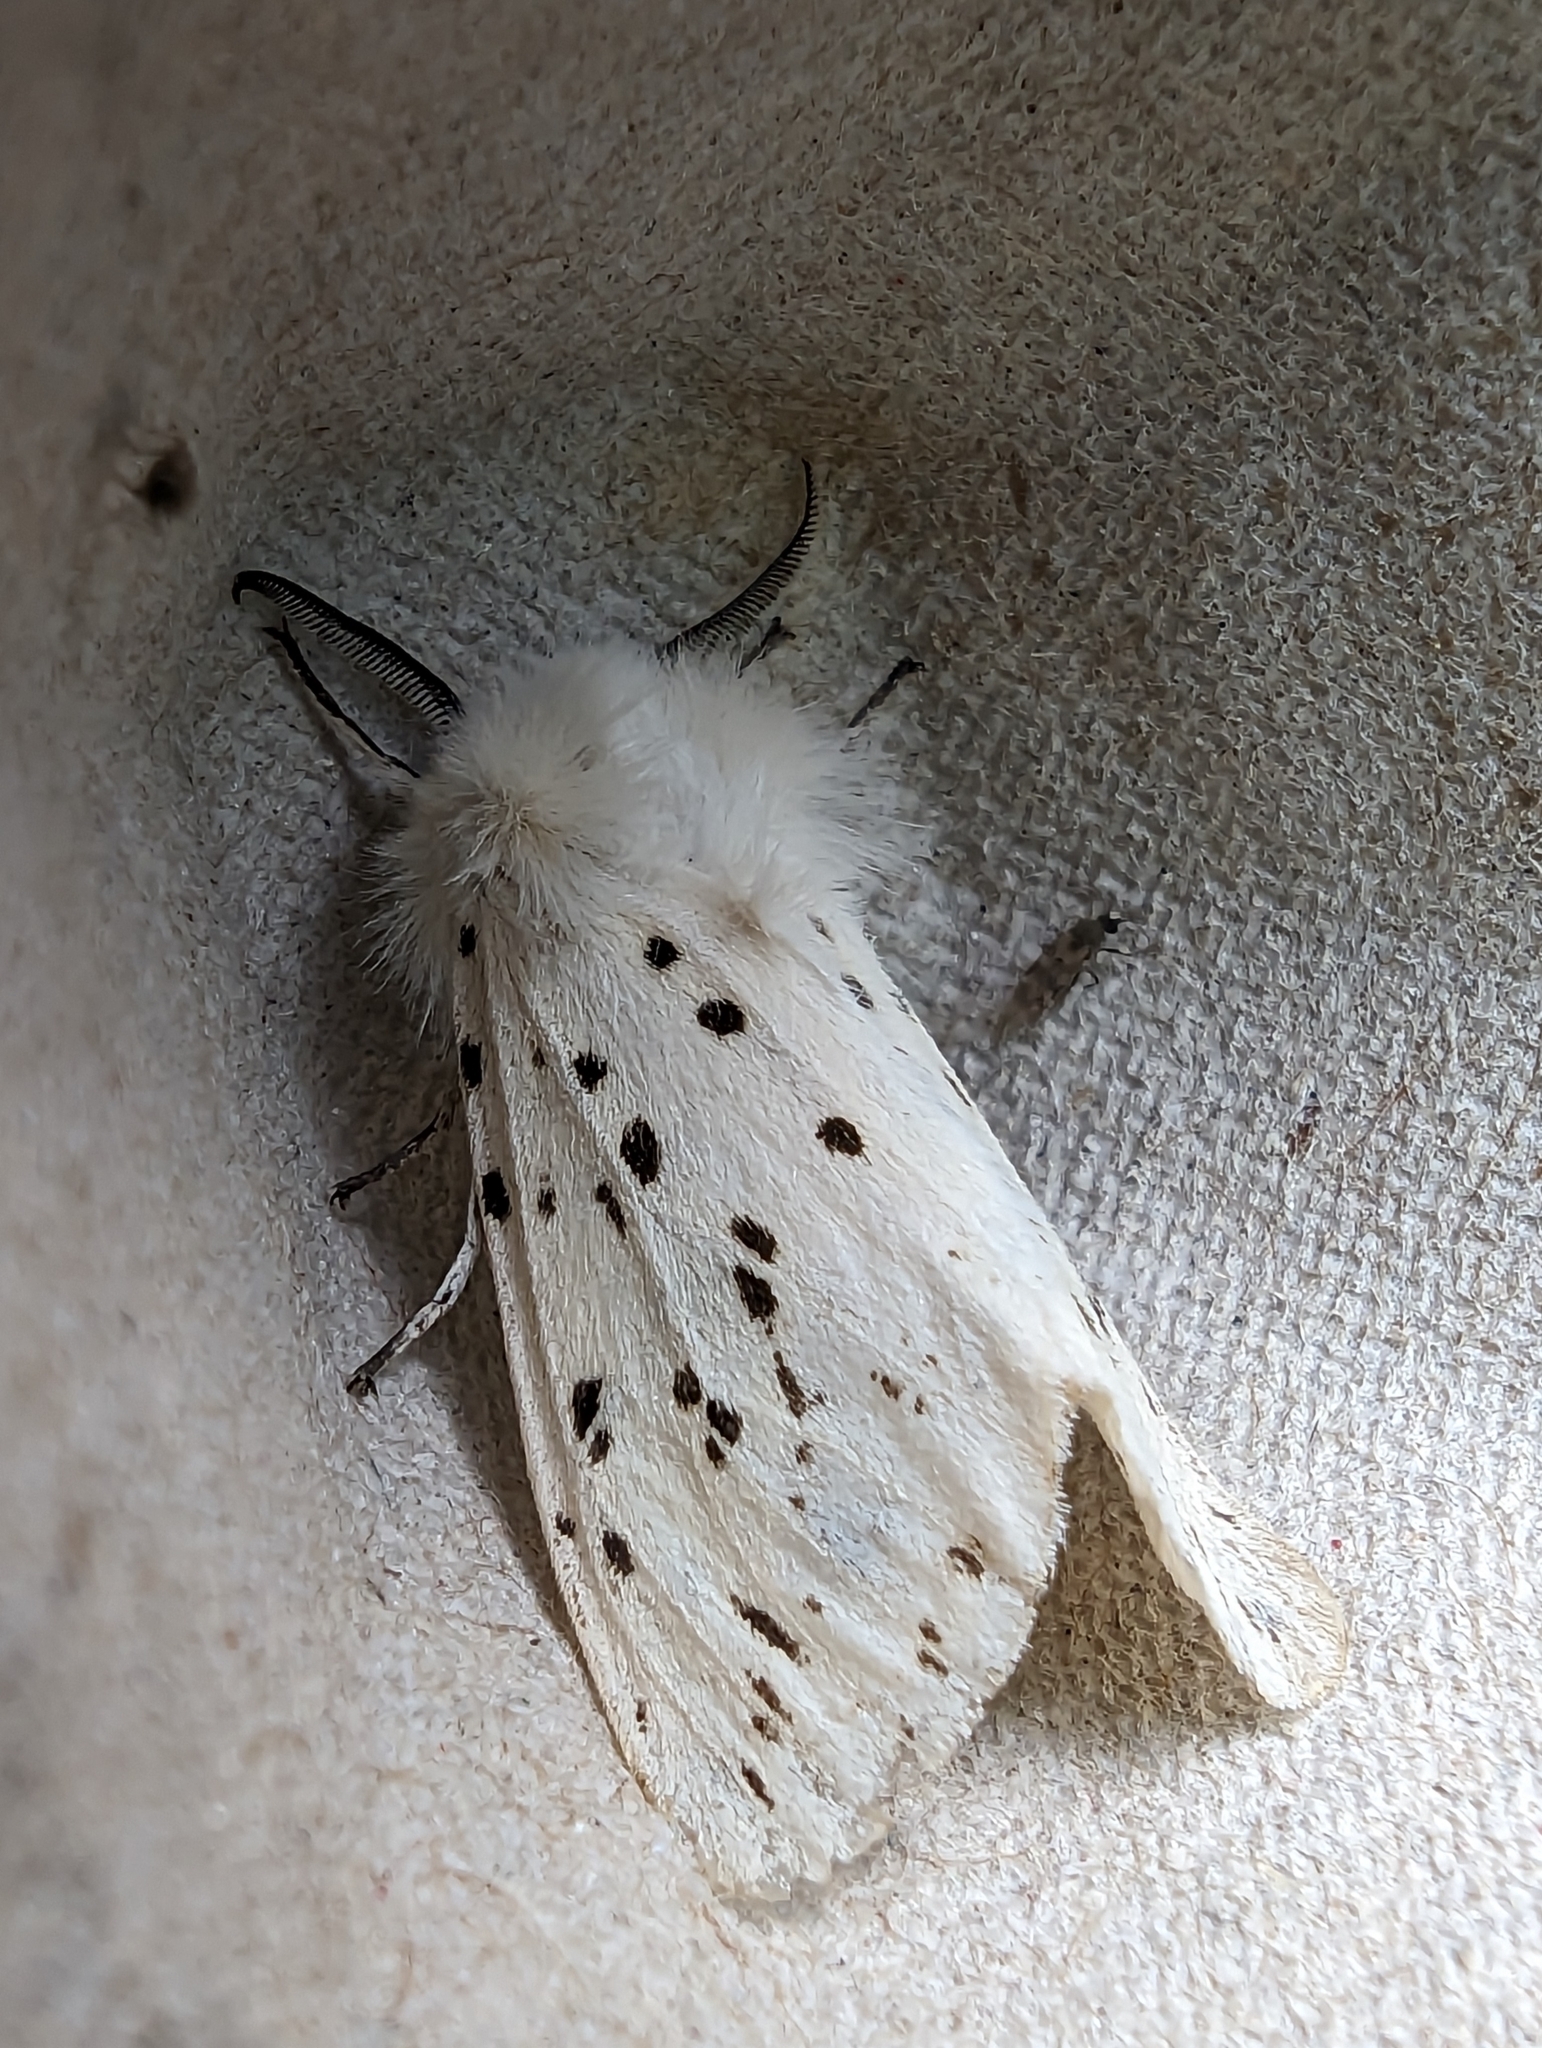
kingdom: Animalia
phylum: Arthropoda
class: Insecta
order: Lepidoptera
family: Erebidae
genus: Spilosoma
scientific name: Spilosoma lubricipeda
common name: White ermine
